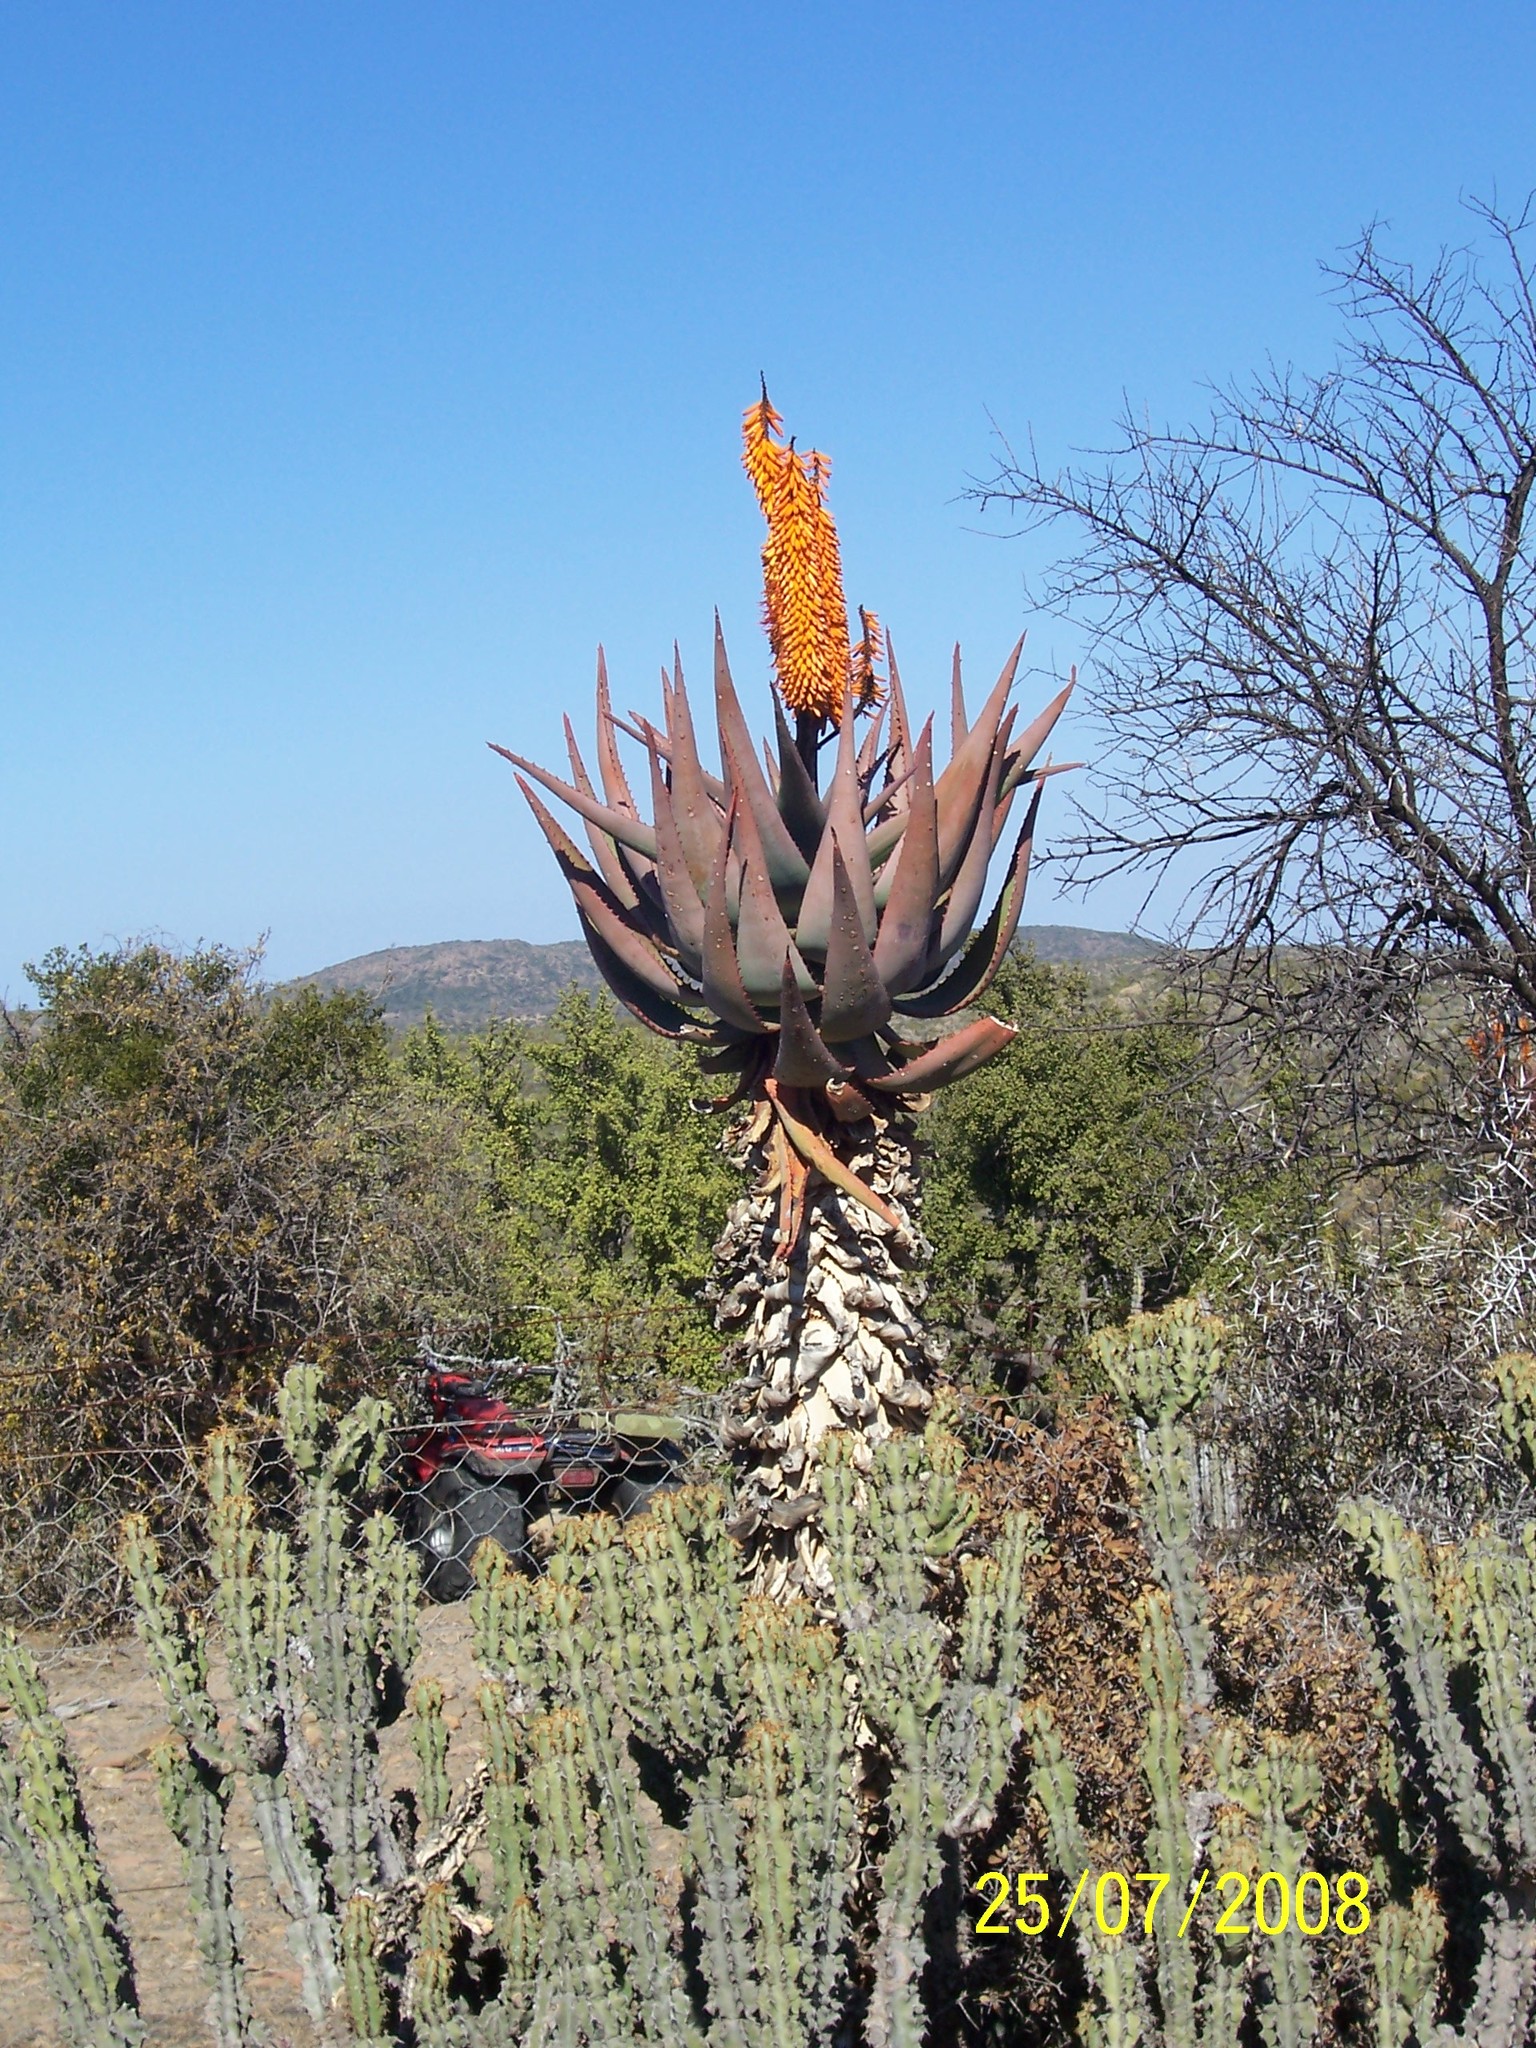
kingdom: Plantae
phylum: Tracheophyta
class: Liliopsida
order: Asparagales
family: Asphodelaceae
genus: Aloe
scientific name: Aloe ferox
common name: Bitter aloe
